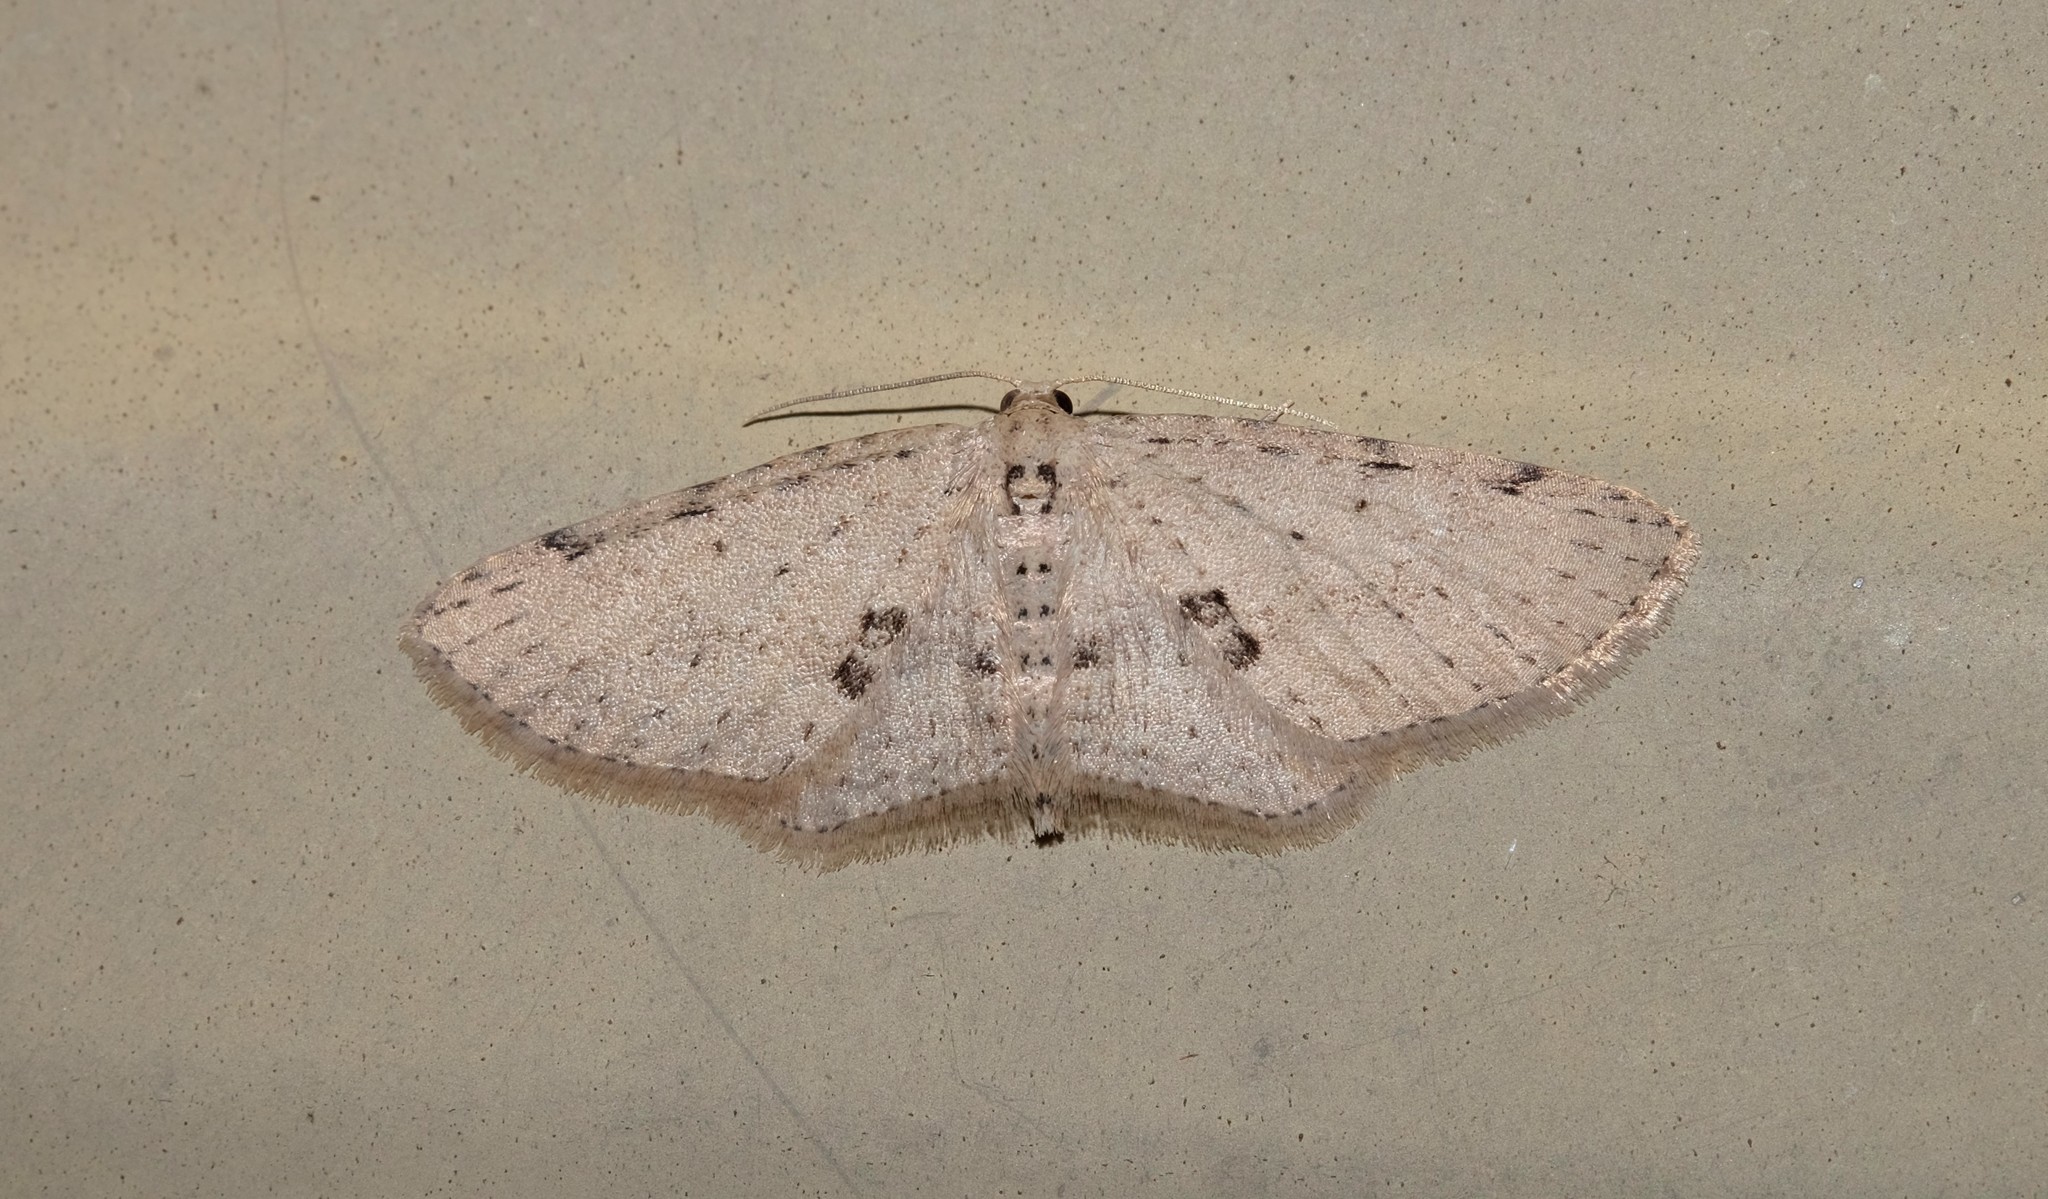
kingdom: Animalia
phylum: Arthropoda
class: Insecta
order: Lepidoptera
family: Geometridae
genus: Poecilasthena
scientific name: Poecilasthena scoliota
